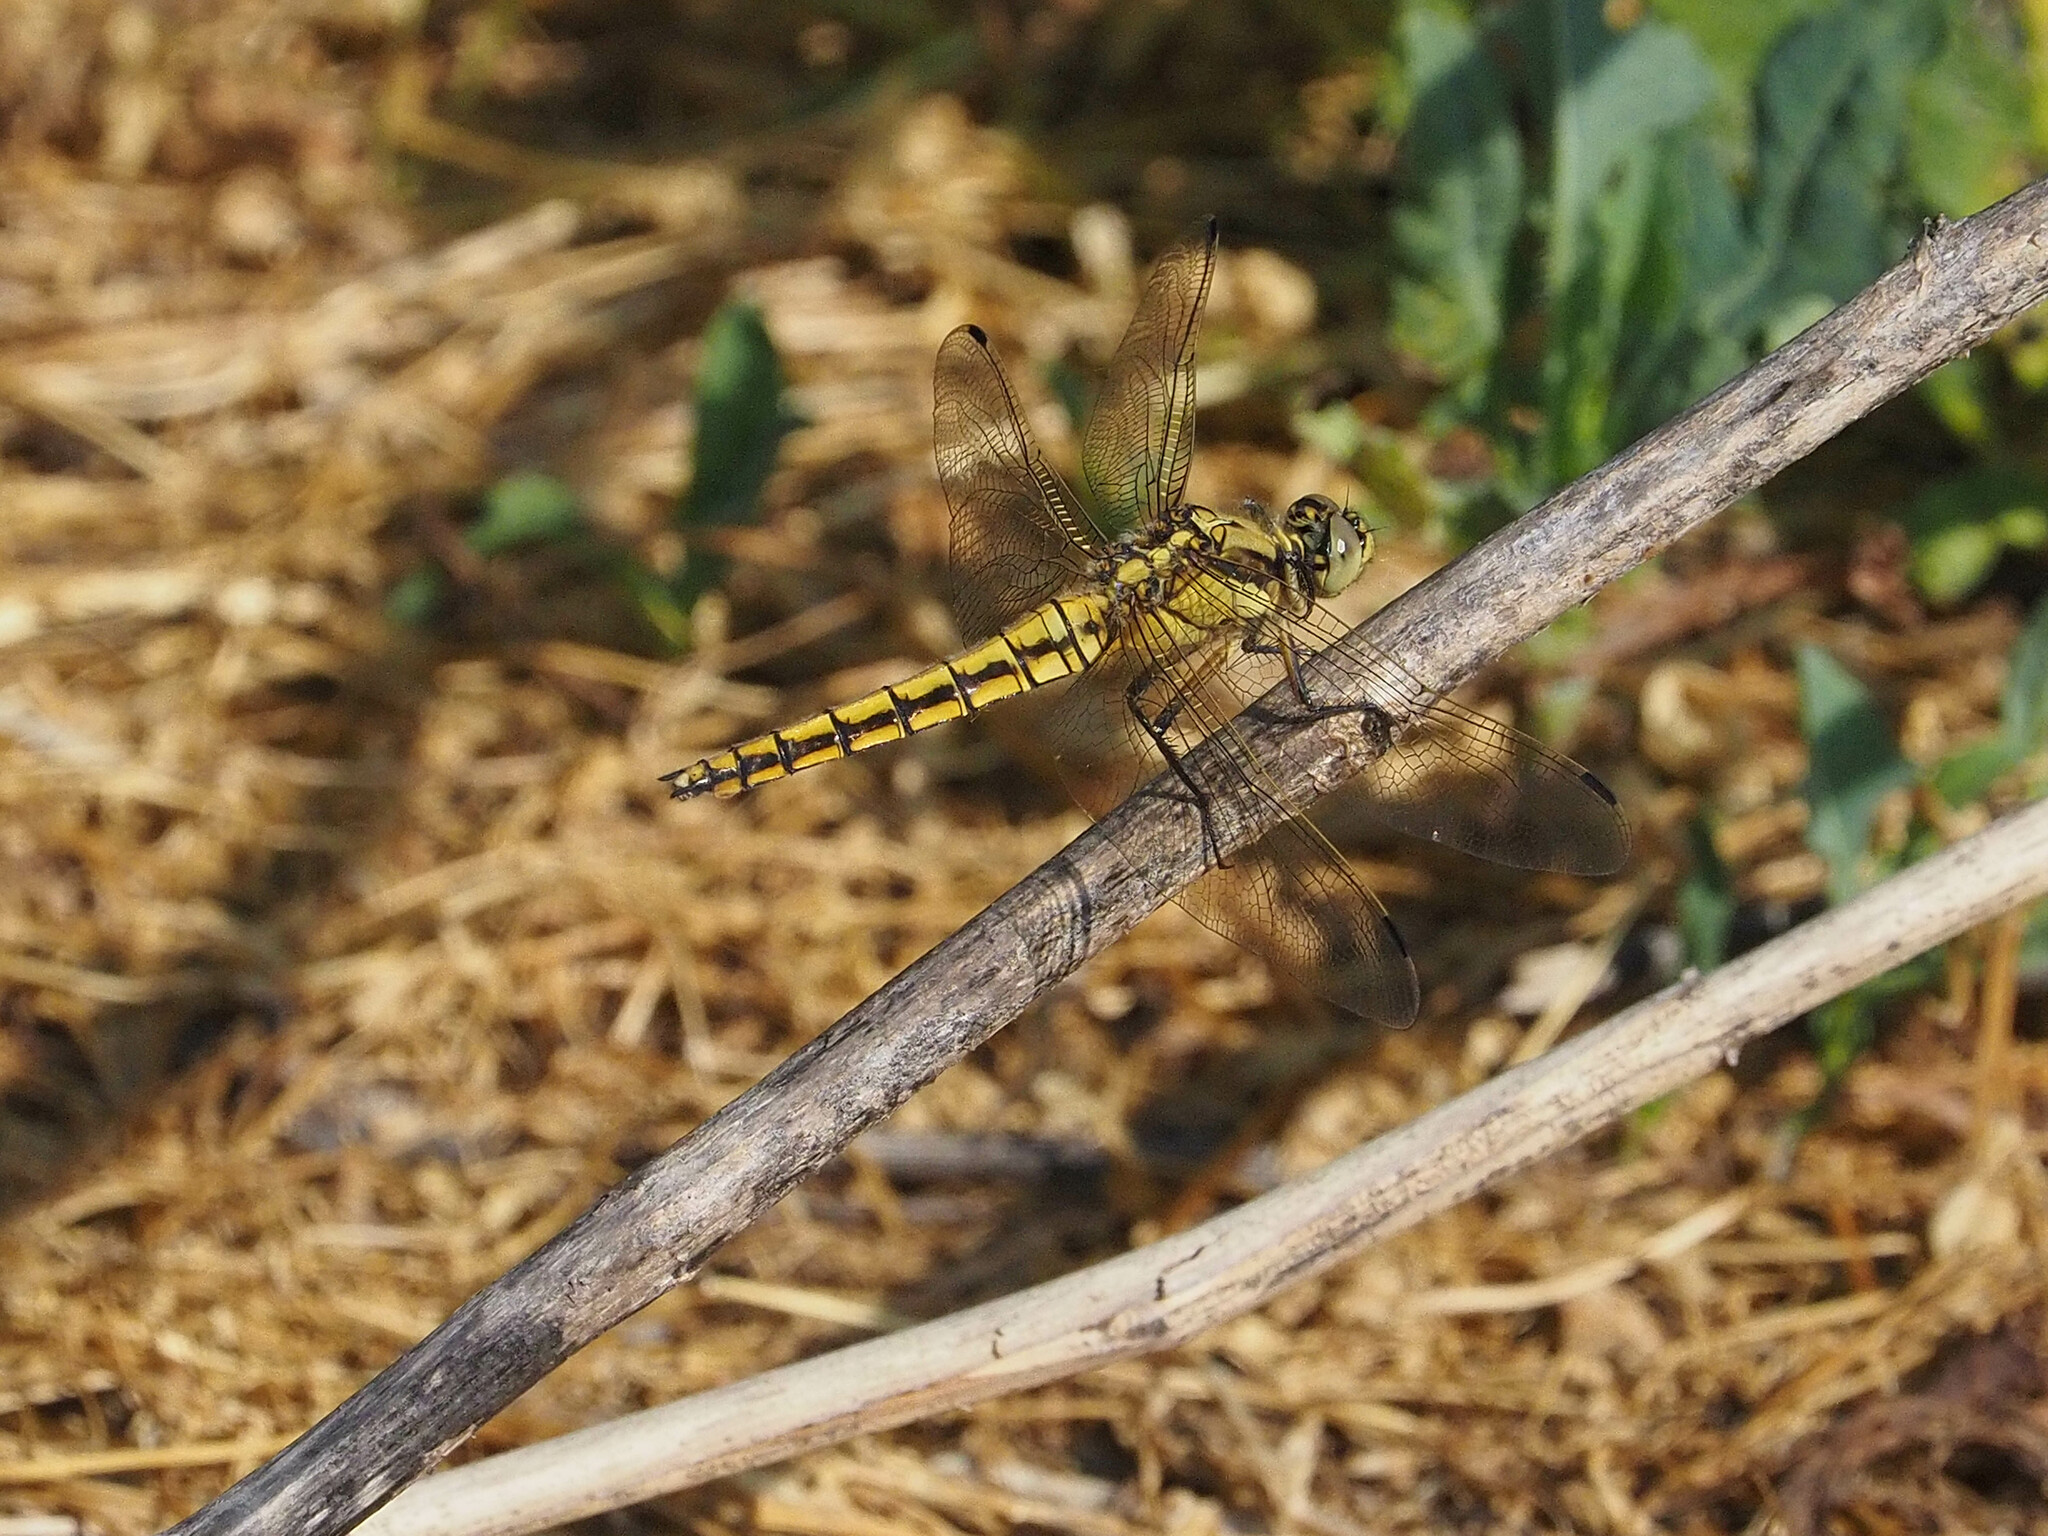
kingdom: Animalia
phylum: Arthropoda
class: Insecta
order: Odonata
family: Libellulidae
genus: Orthetrum
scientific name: Orthetrum cancellatum
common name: Black-tailed skimmer
